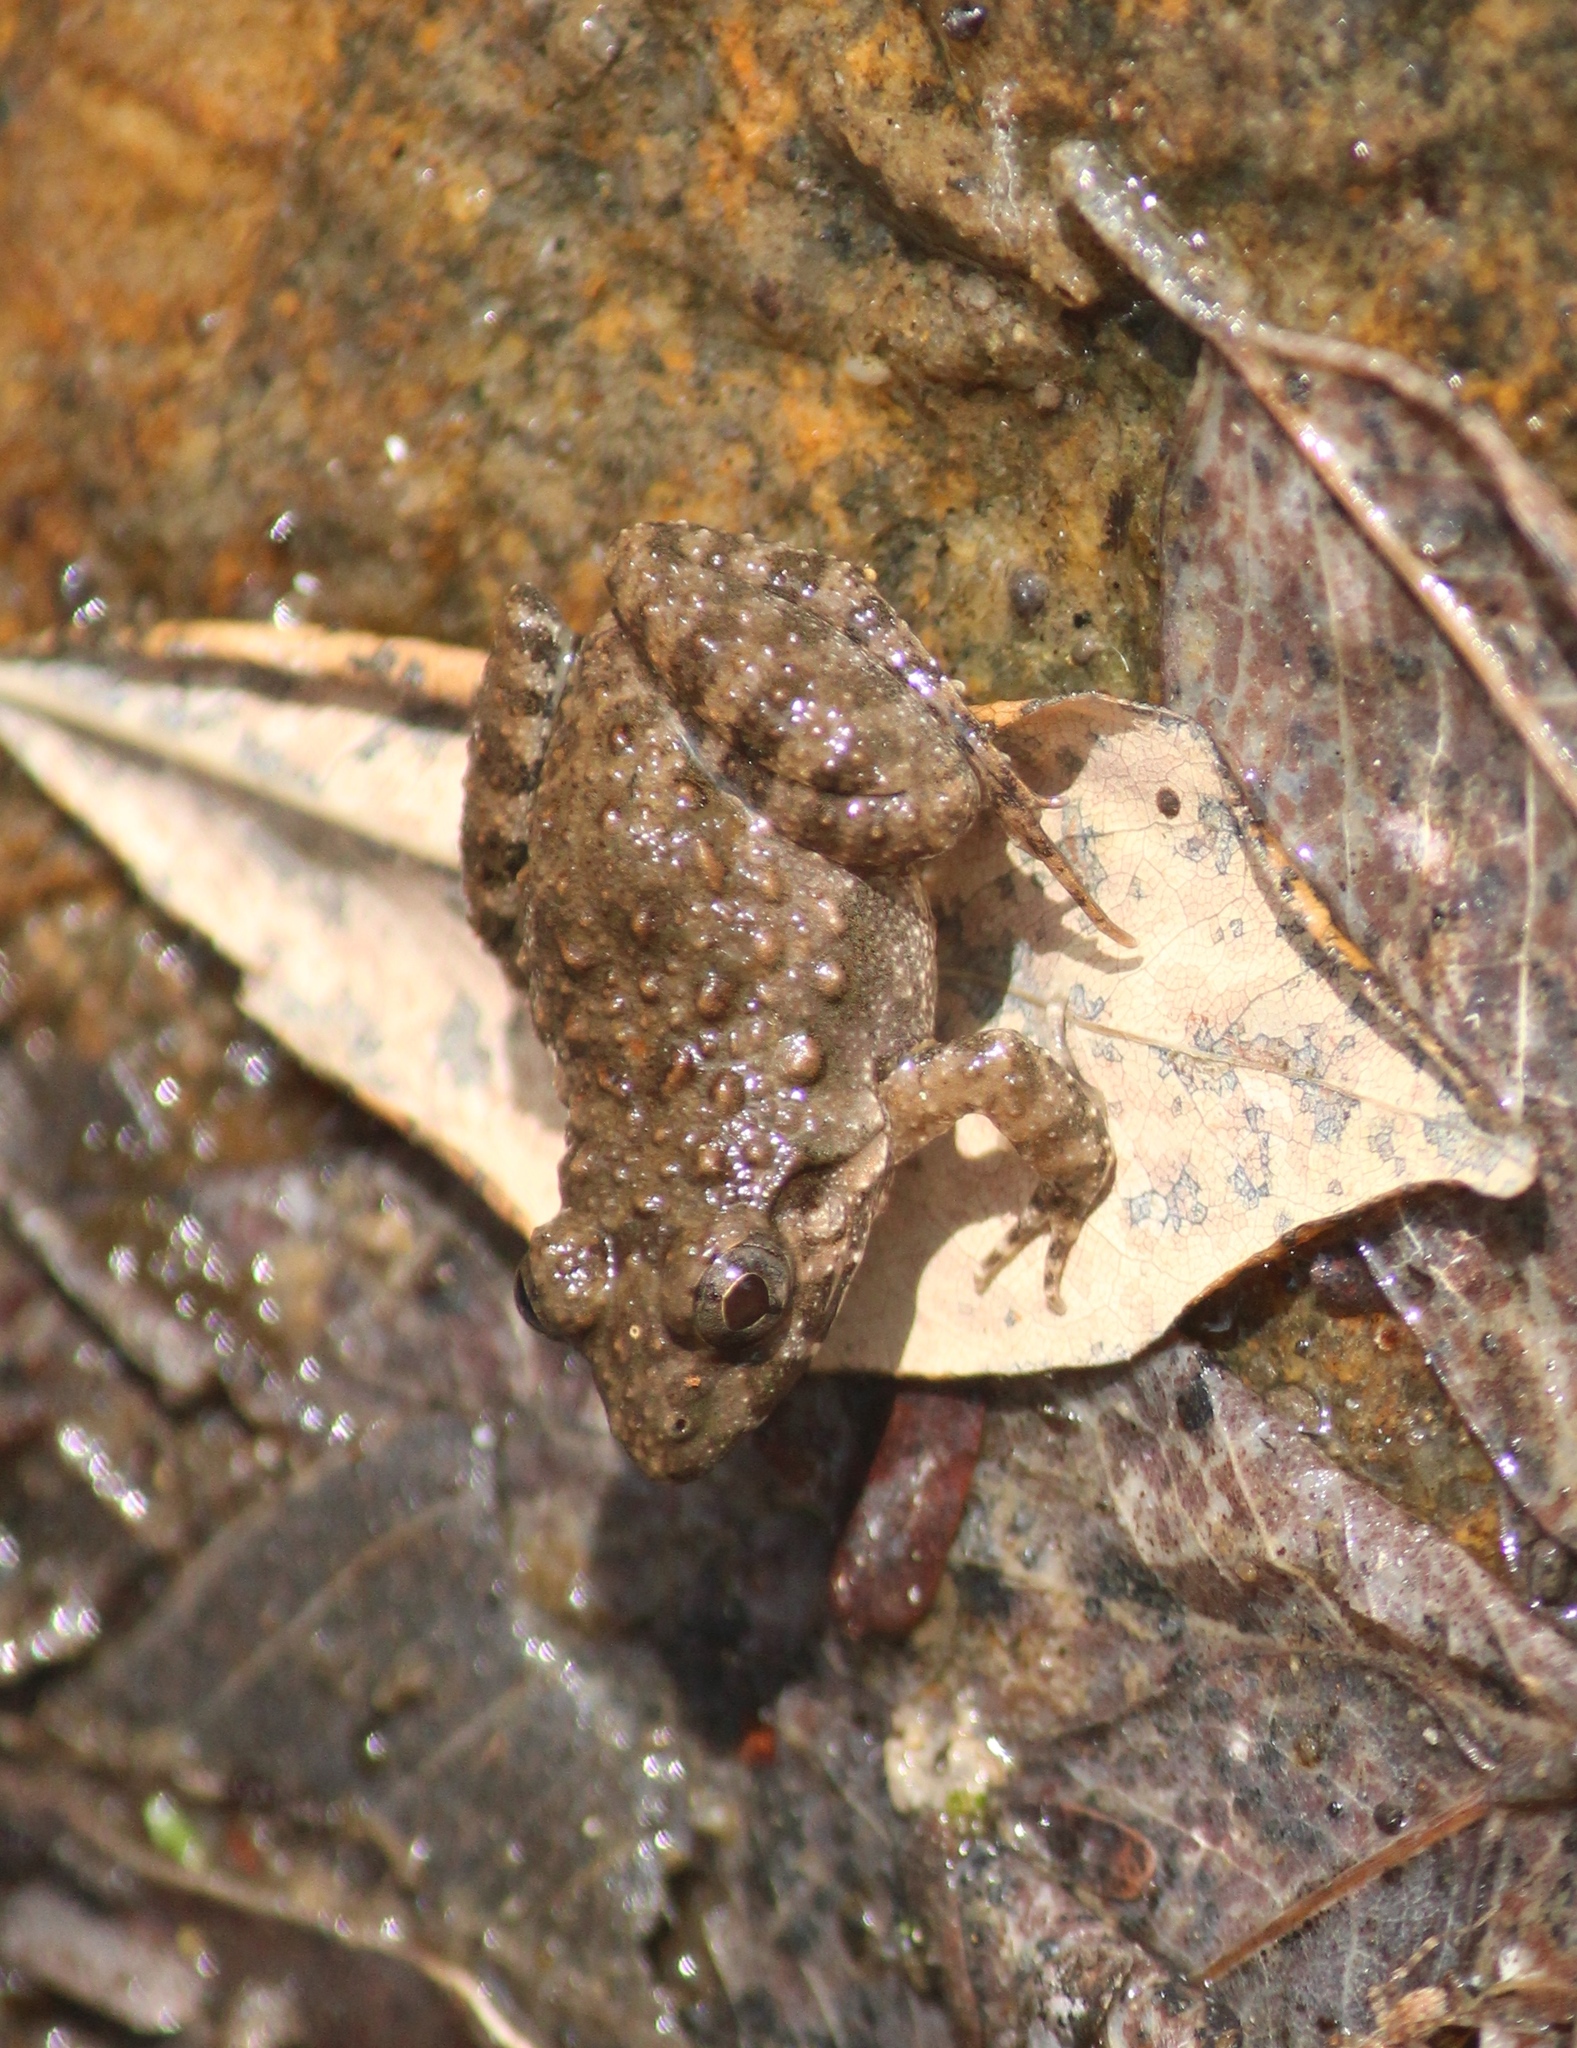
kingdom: Animalia
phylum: Chordata
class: Amphibia
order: Anura
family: Dicroglossidae
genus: Fejervarya
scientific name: Fejervarya limnocharis
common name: Asian grass frog/common pond frog/field frog/grass frog/indian rice frog
